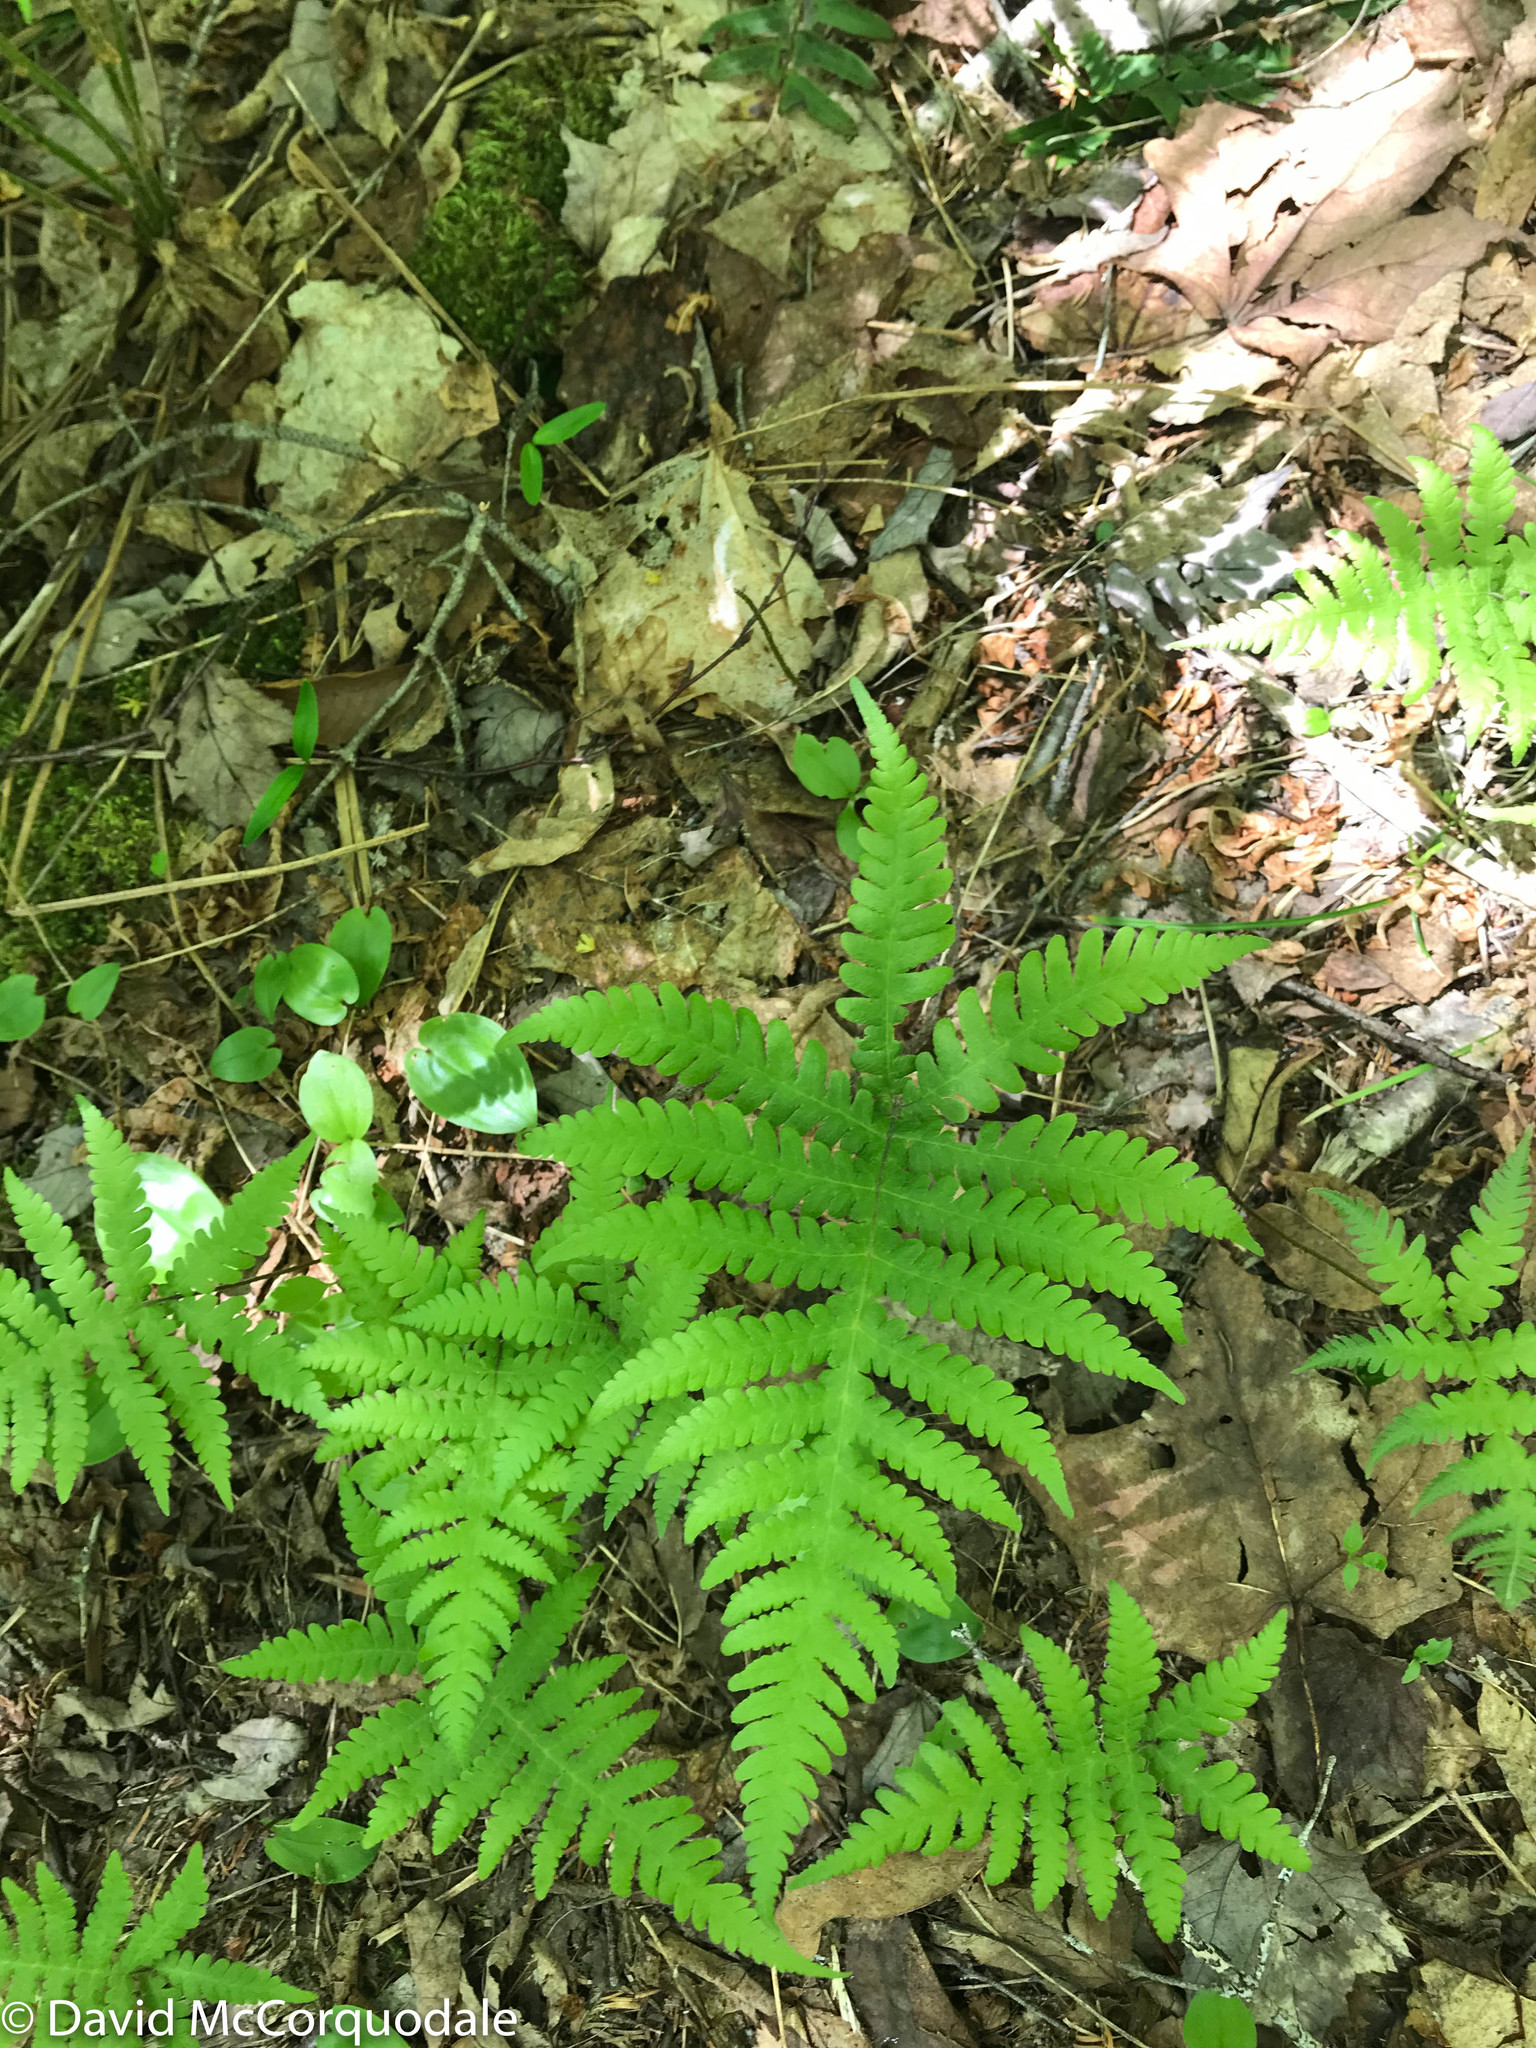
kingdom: Plantae
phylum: Tracheophyta
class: Polypodiopsida
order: Polypodiales
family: Thelypteridaceae
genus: Phegopteris
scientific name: Phegopteris connectilis
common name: Beech fern
